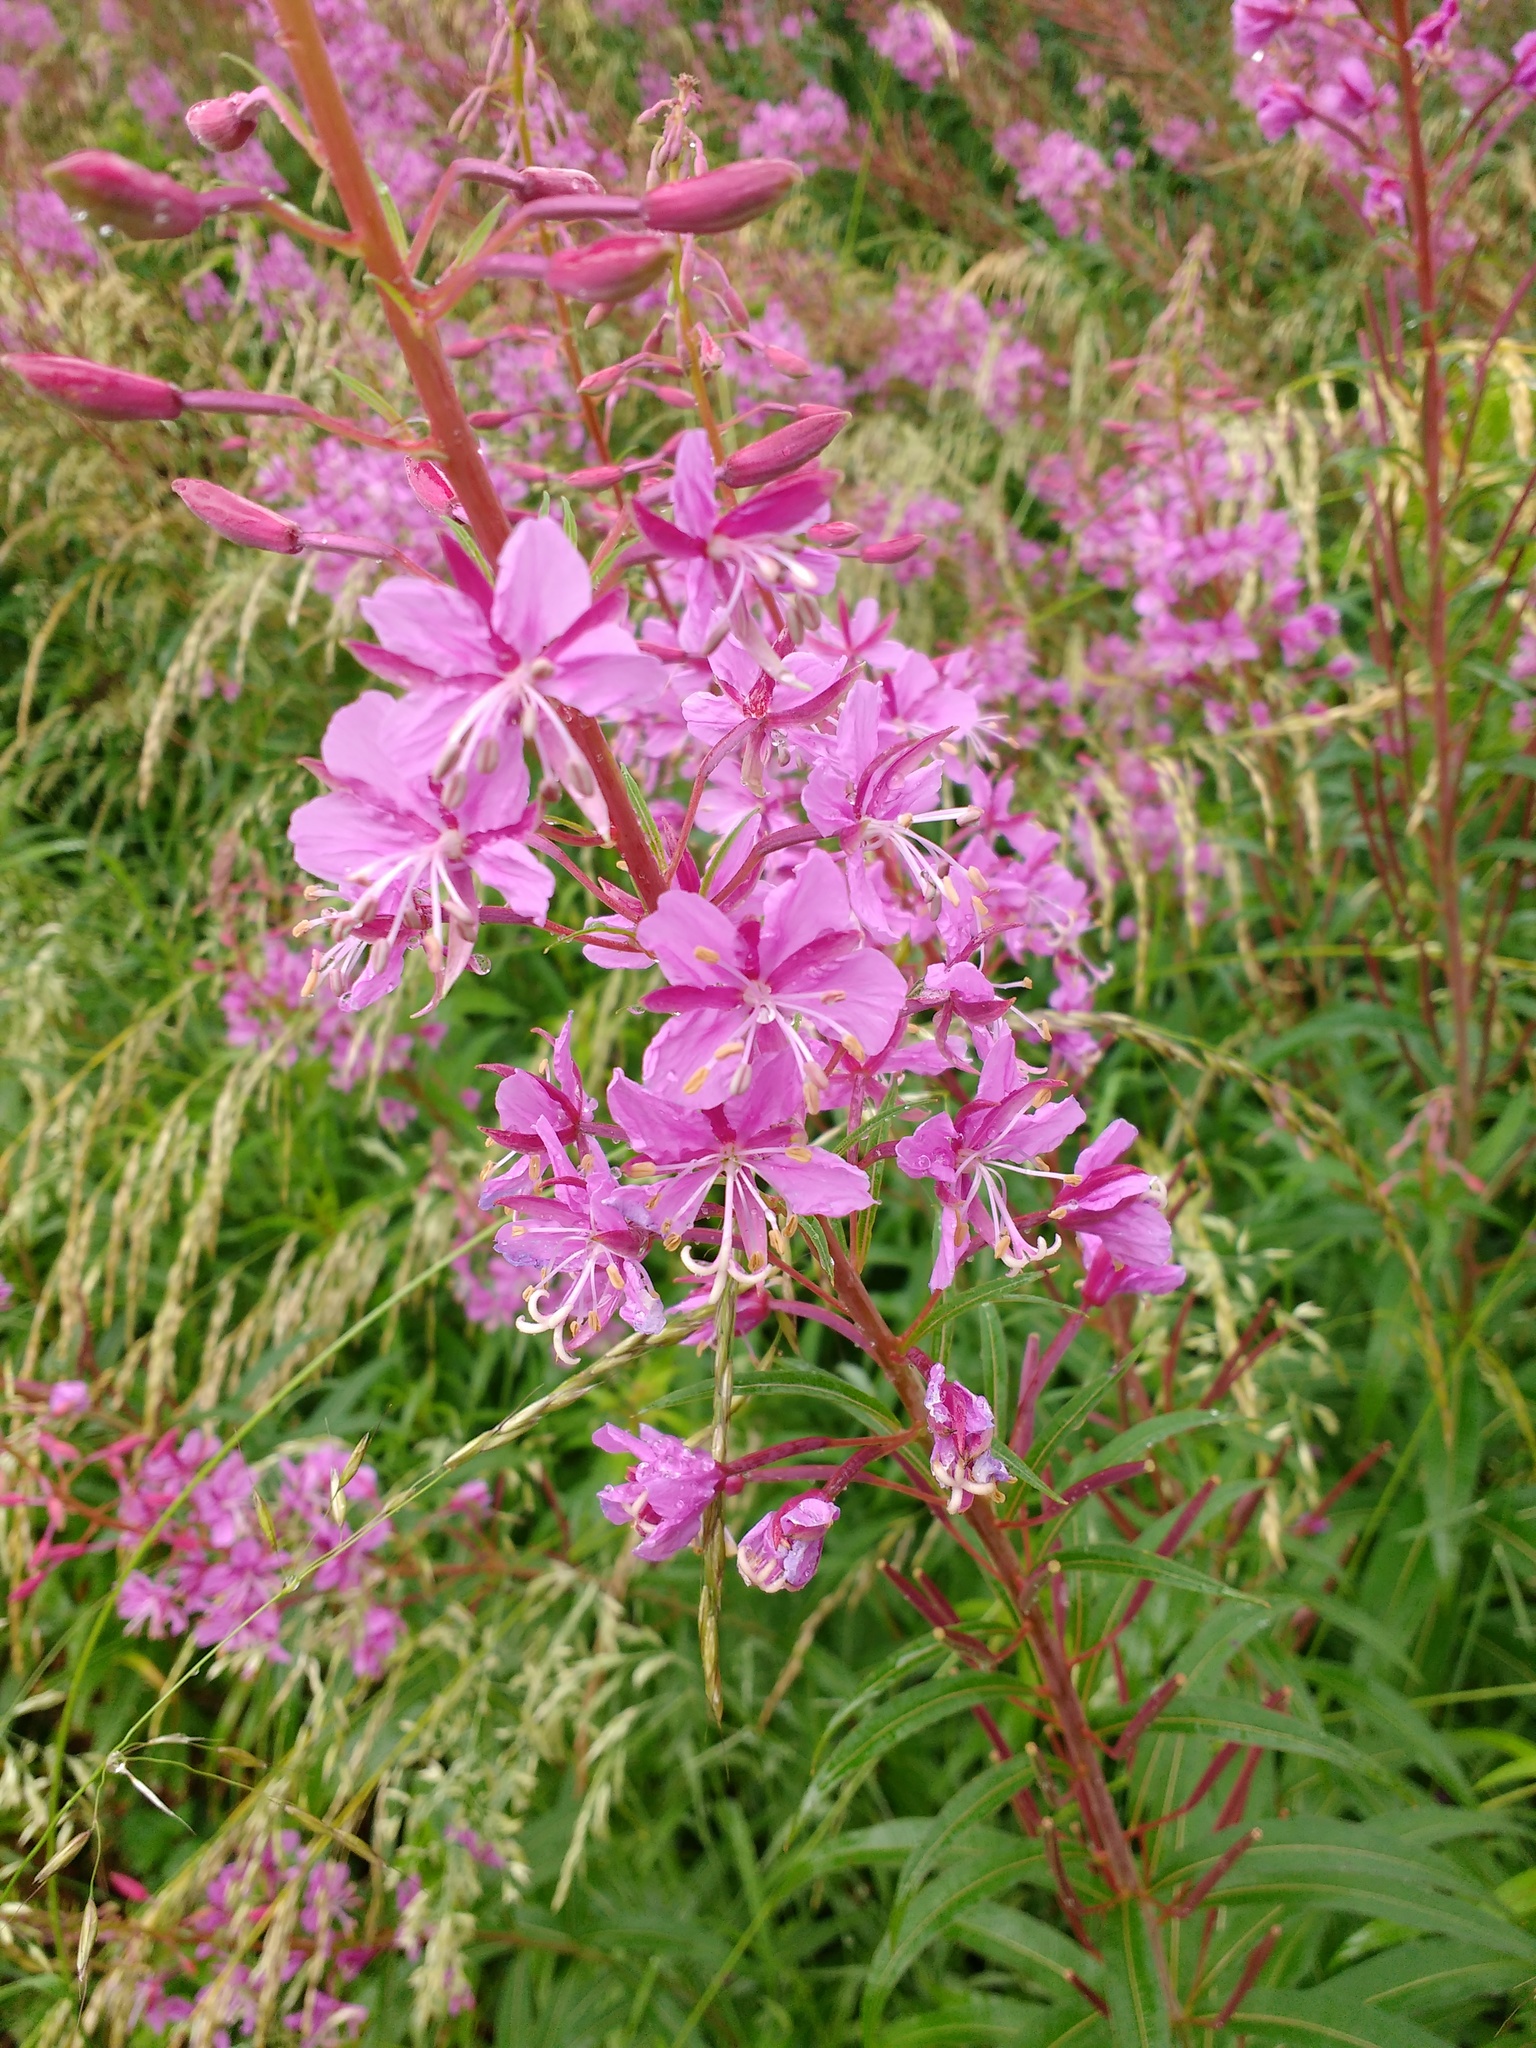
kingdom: Plantae
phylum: Tracheophyta
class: Magnoliopsida
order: Myrtales
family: Onagraceae
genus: Chamaenerion
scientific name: Chamaenerion angustifolium
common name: Fireweed
